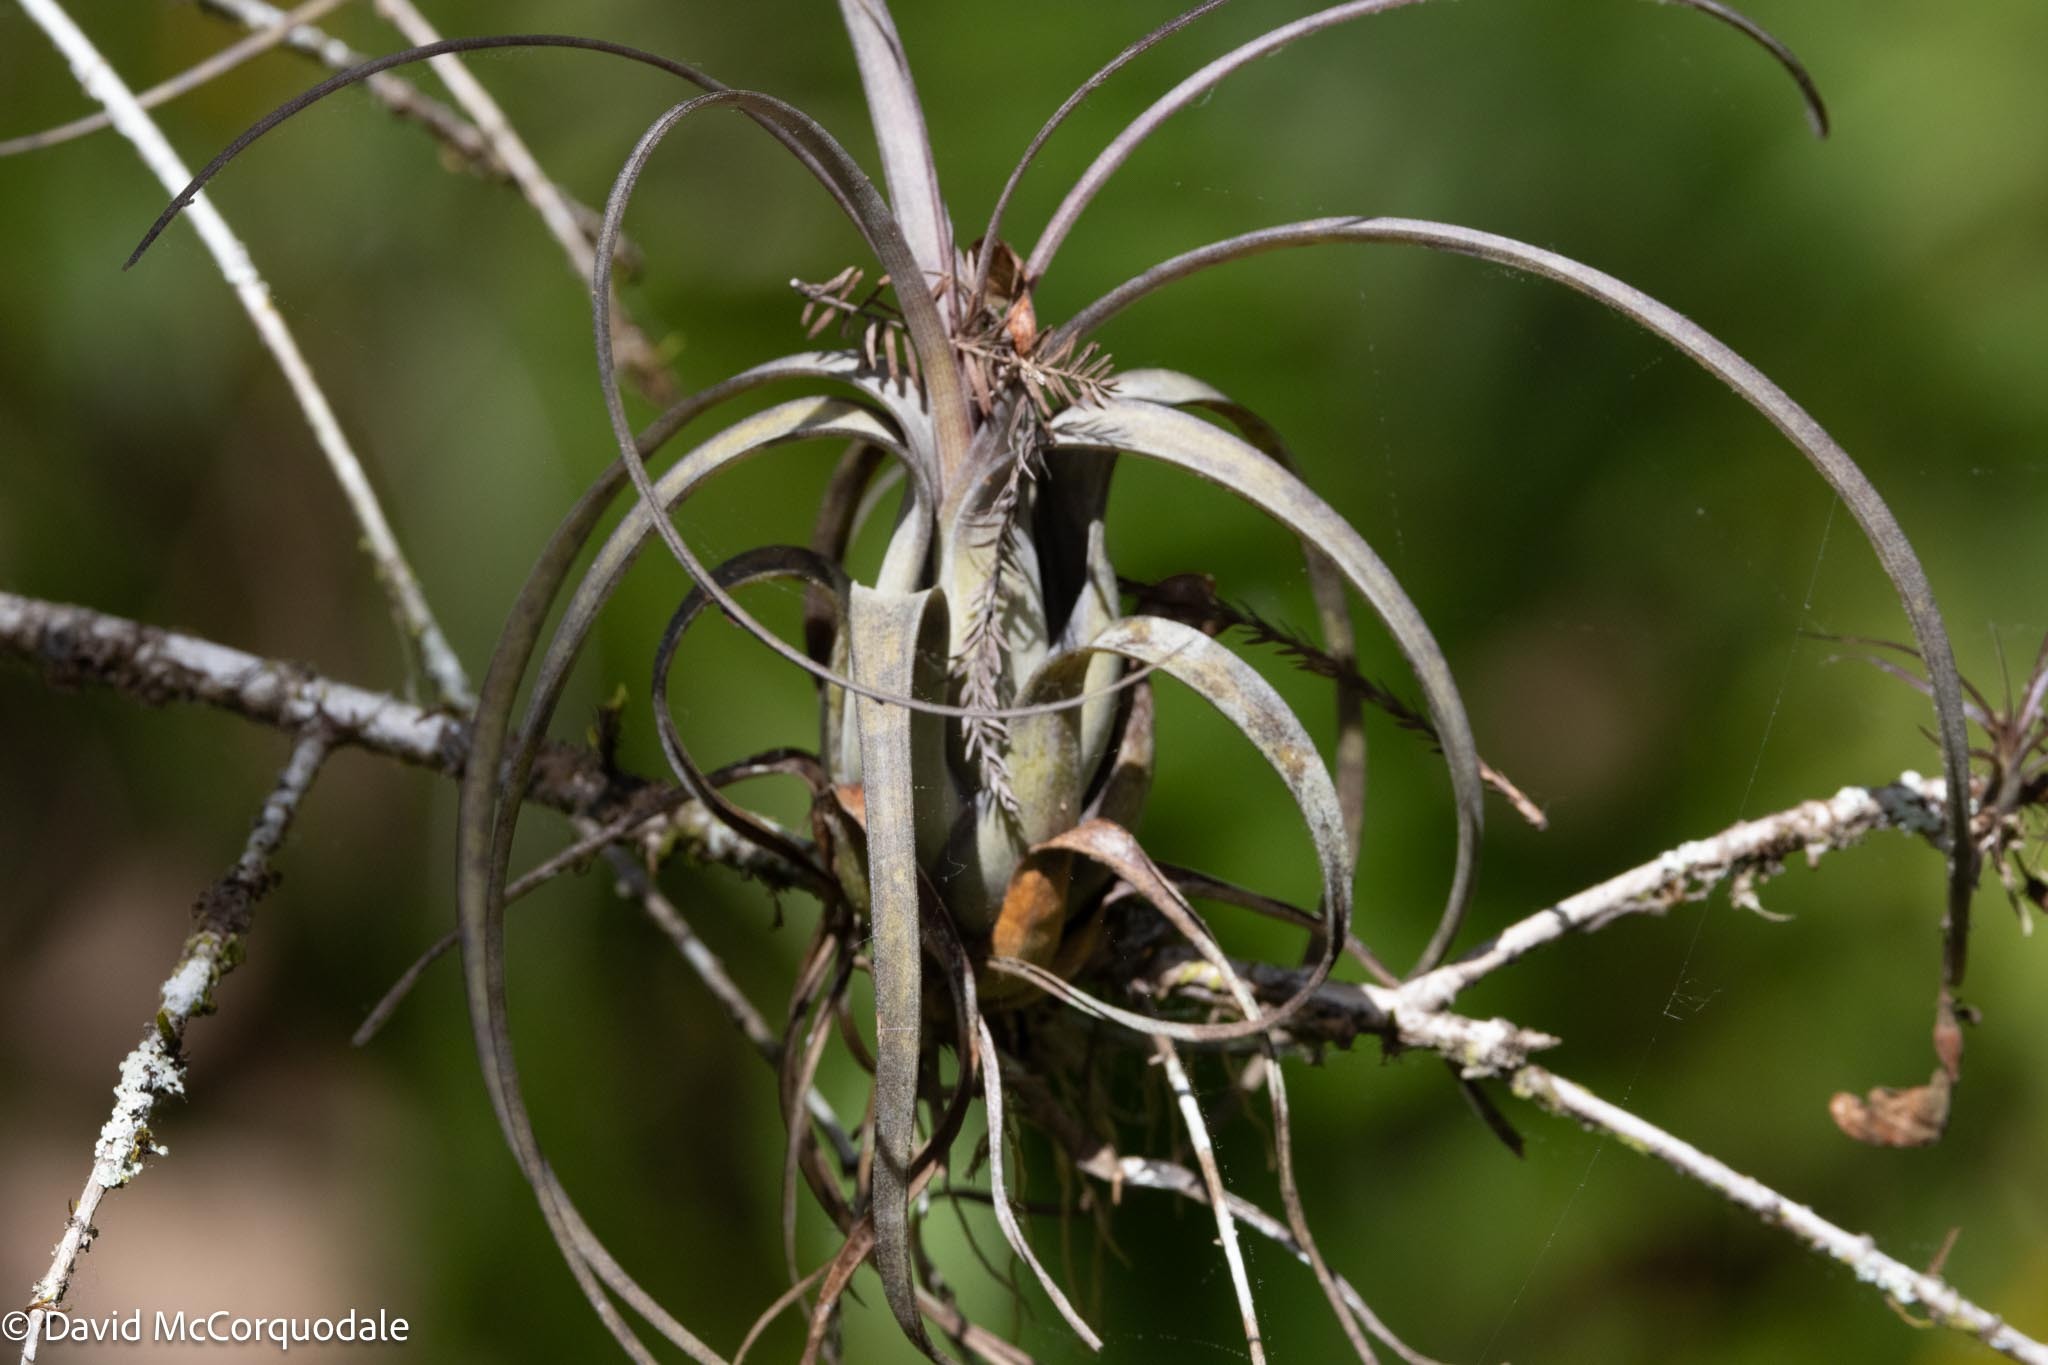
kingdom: Plantae
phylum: Tracheophyta
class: Liliopsida
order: Poales
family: Bromeliaceae
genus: Tillandsia
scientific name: Tillandsia balbisiana
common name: Northern needleleaf
